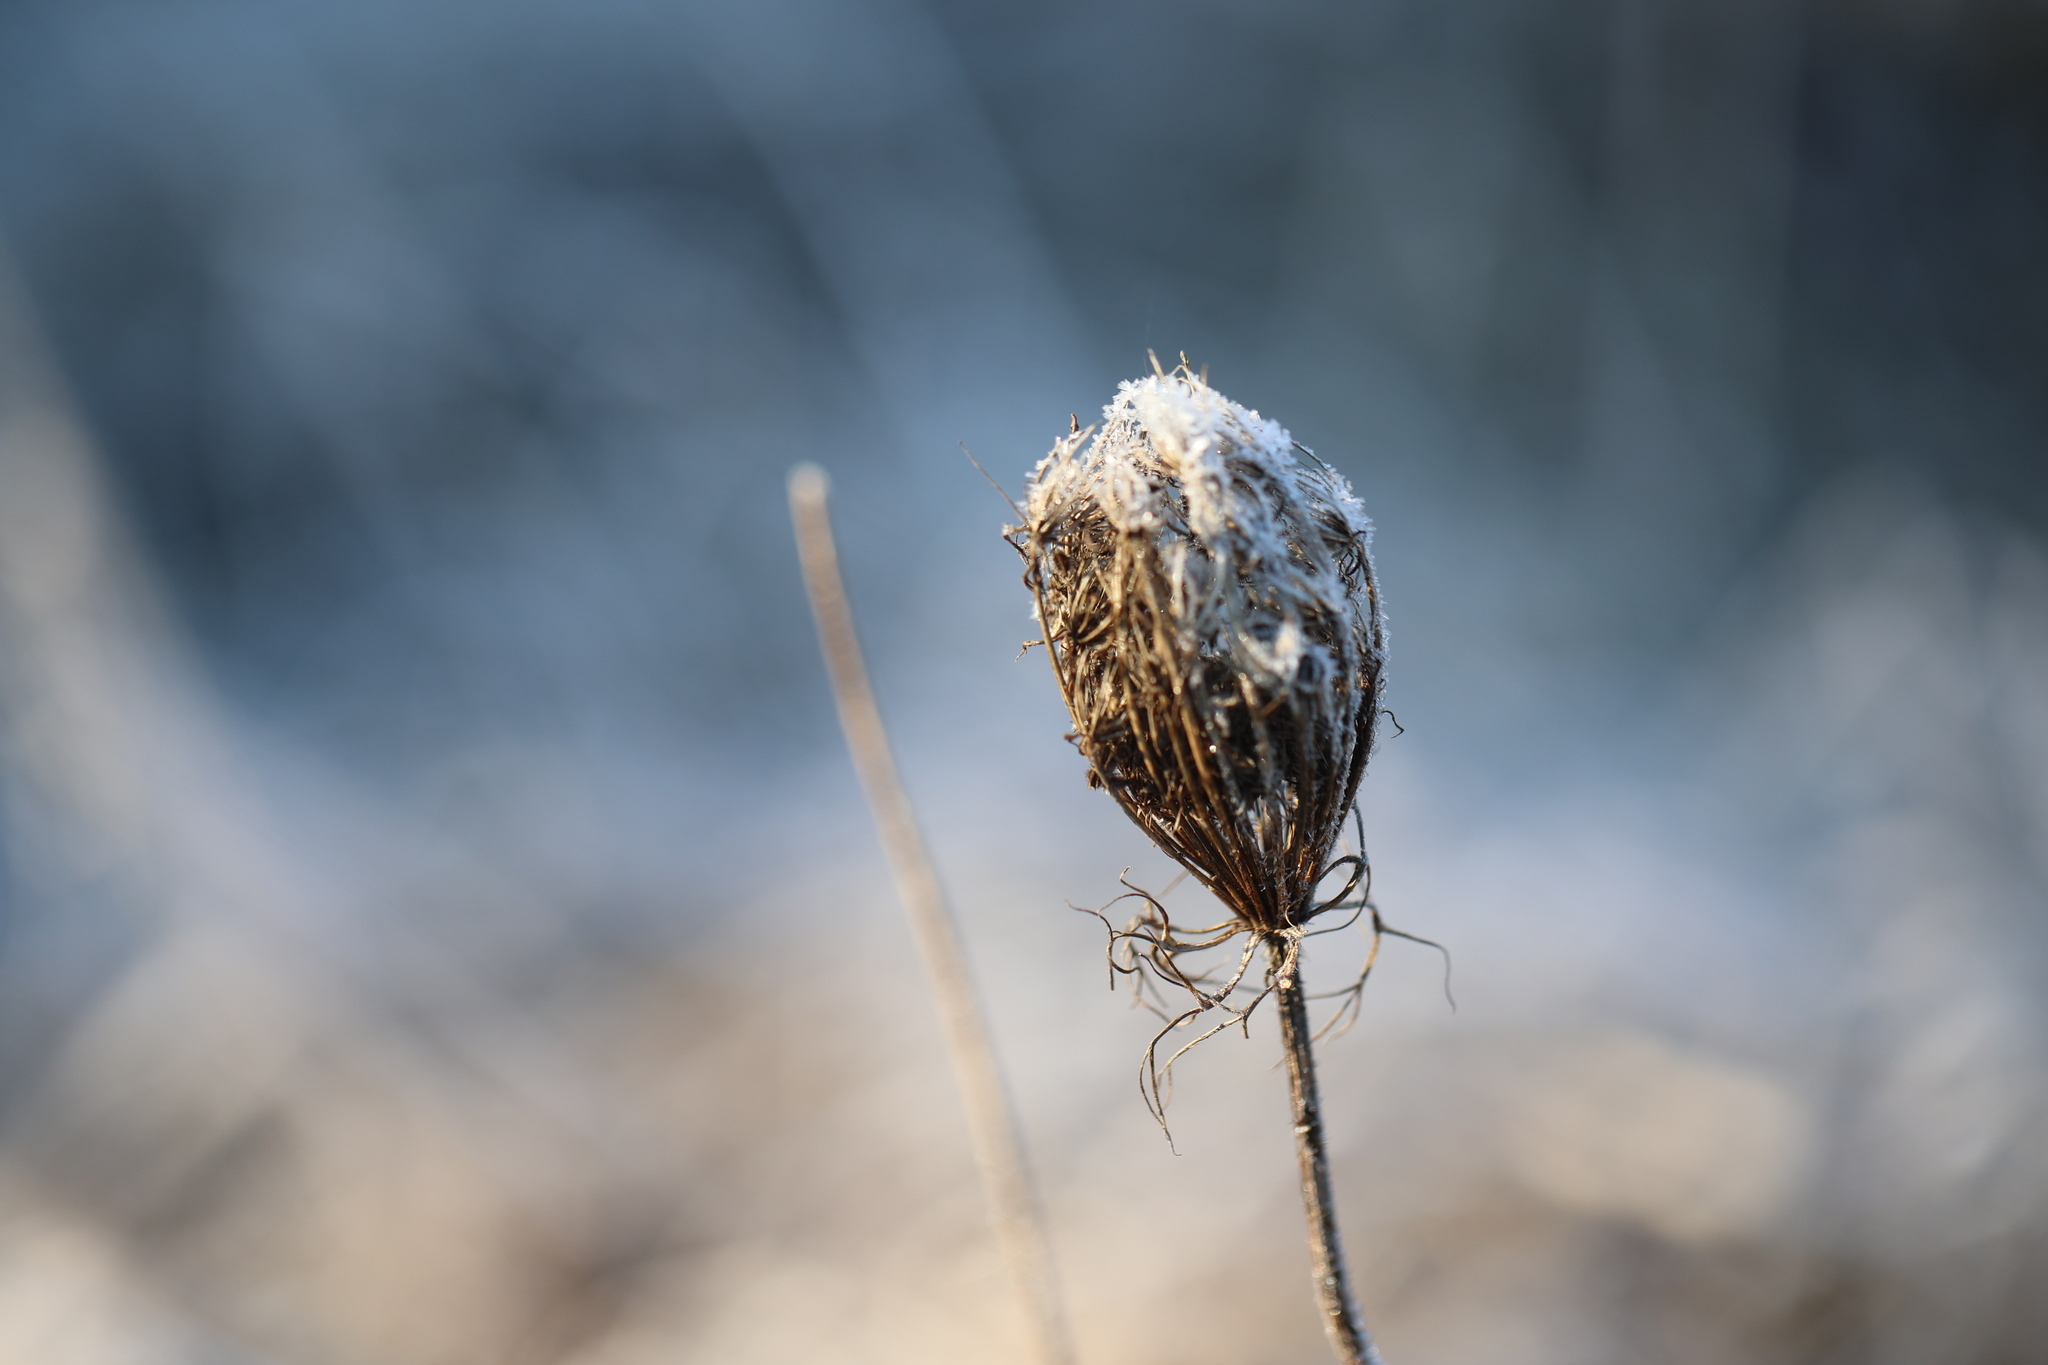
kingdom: Plantae
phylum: Tracheophyta
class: Magnoliopsida
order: Apiales
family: Apiaceae
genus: Daucus
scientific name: Daucus carota
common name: Wild carrot
